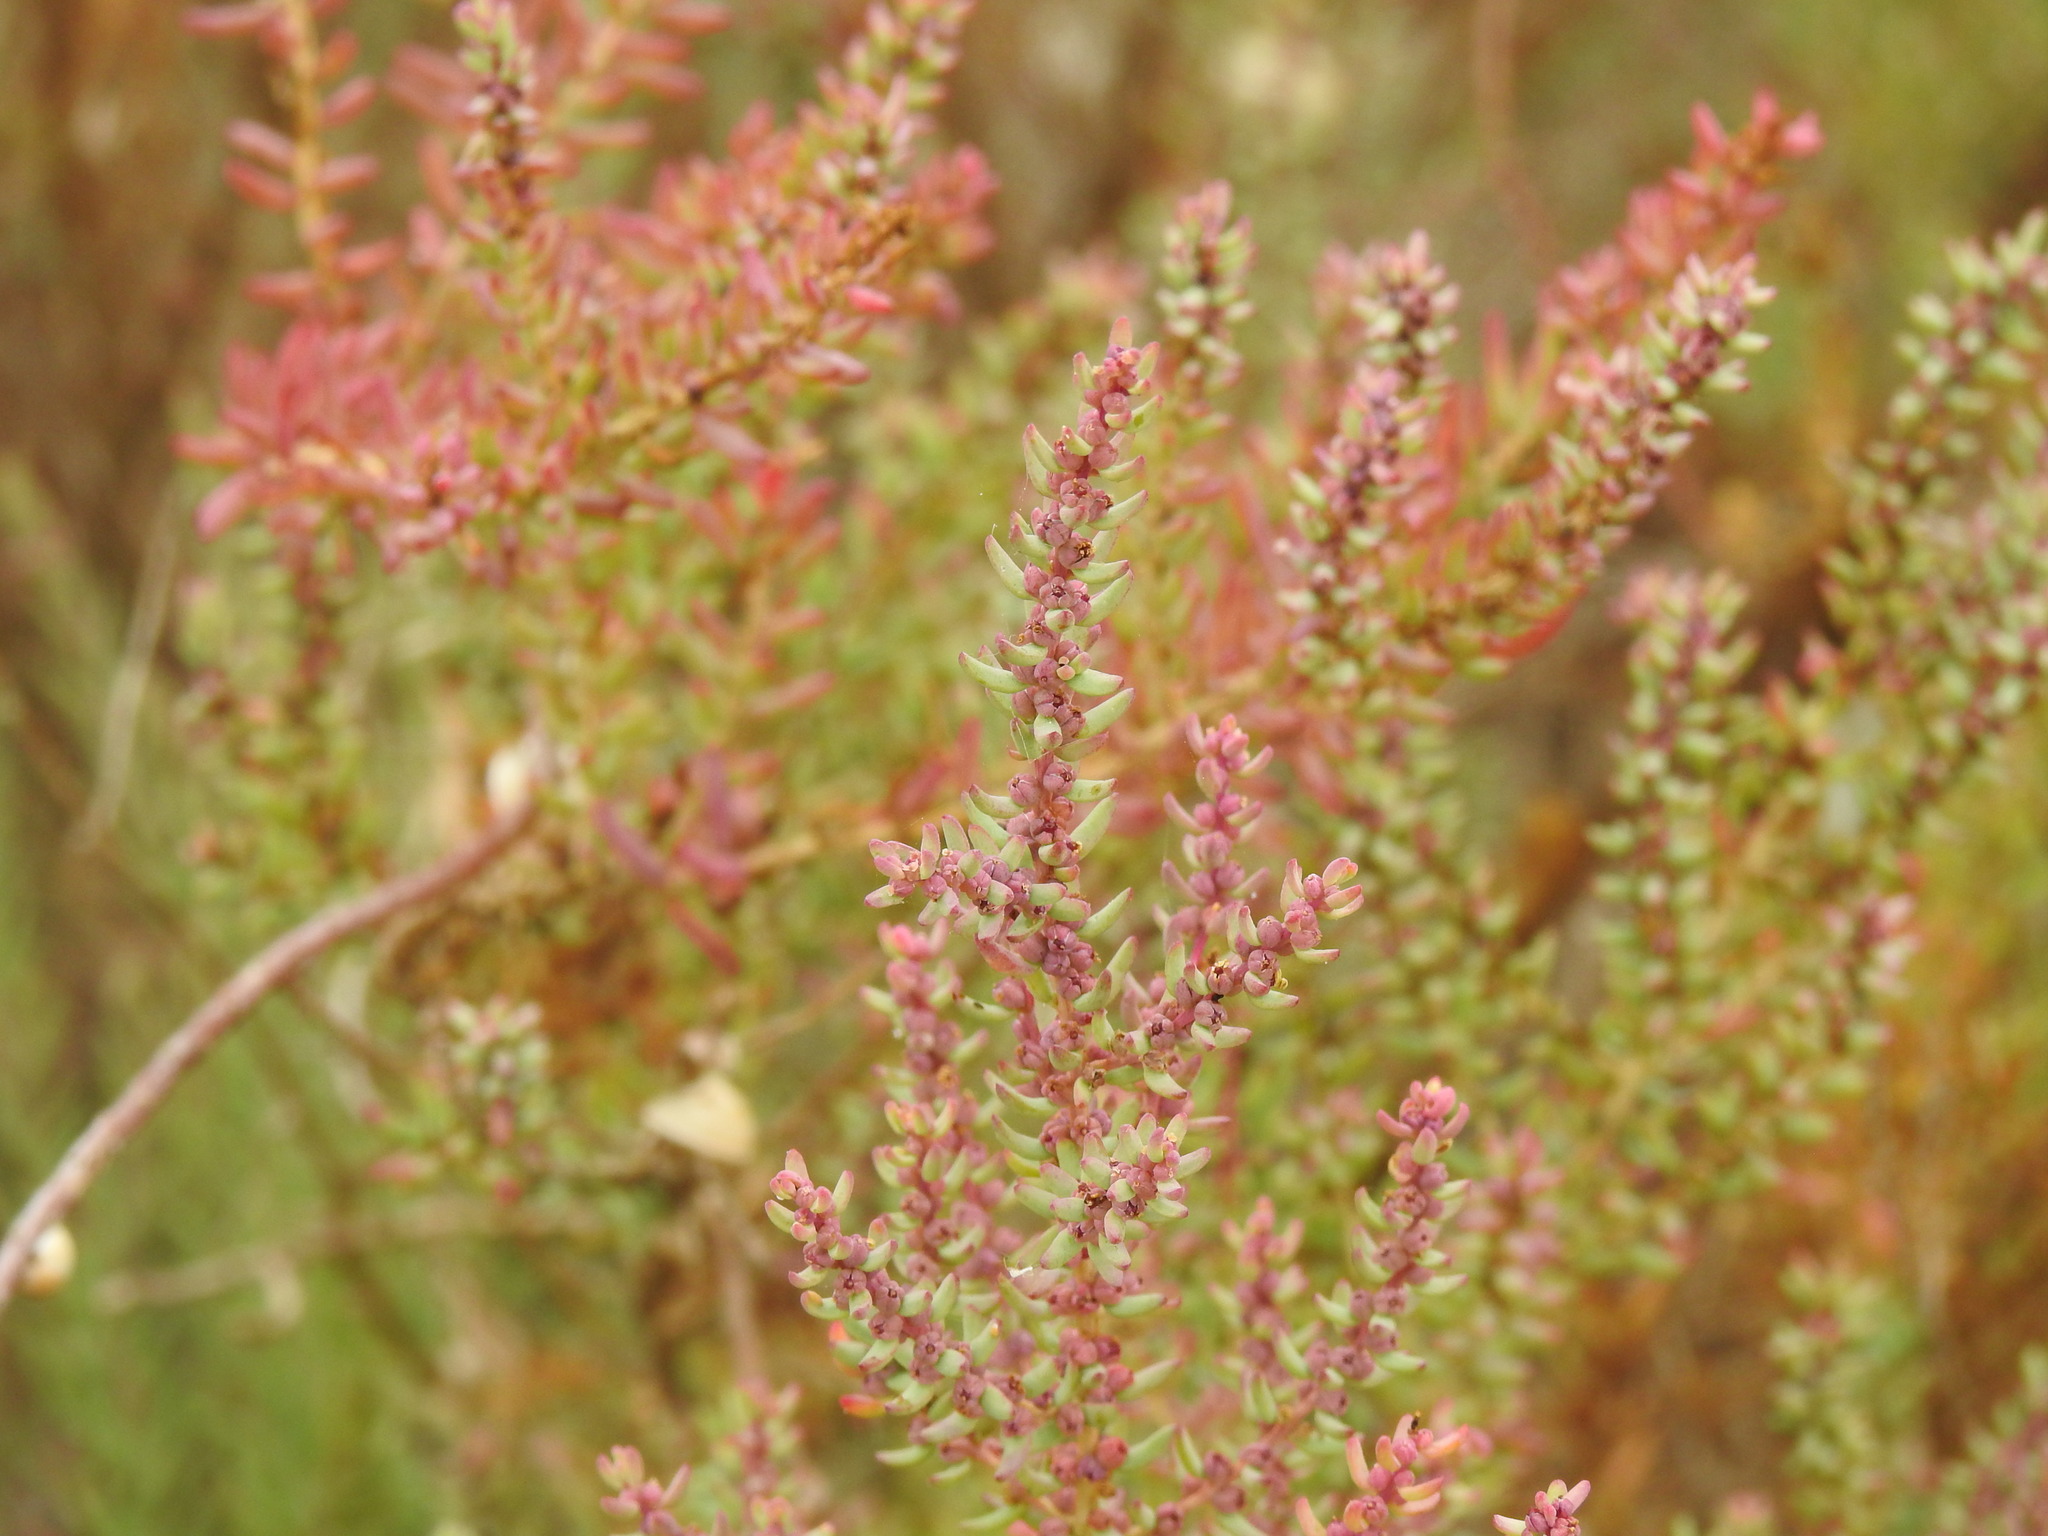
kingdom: Plantae
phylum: Tracheophyta
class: Magnoliopsida
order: Caryophyllales
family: Amaranthaceae
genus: Suaeda
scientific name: Suaeda vera
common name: Shrubby sea-blite
